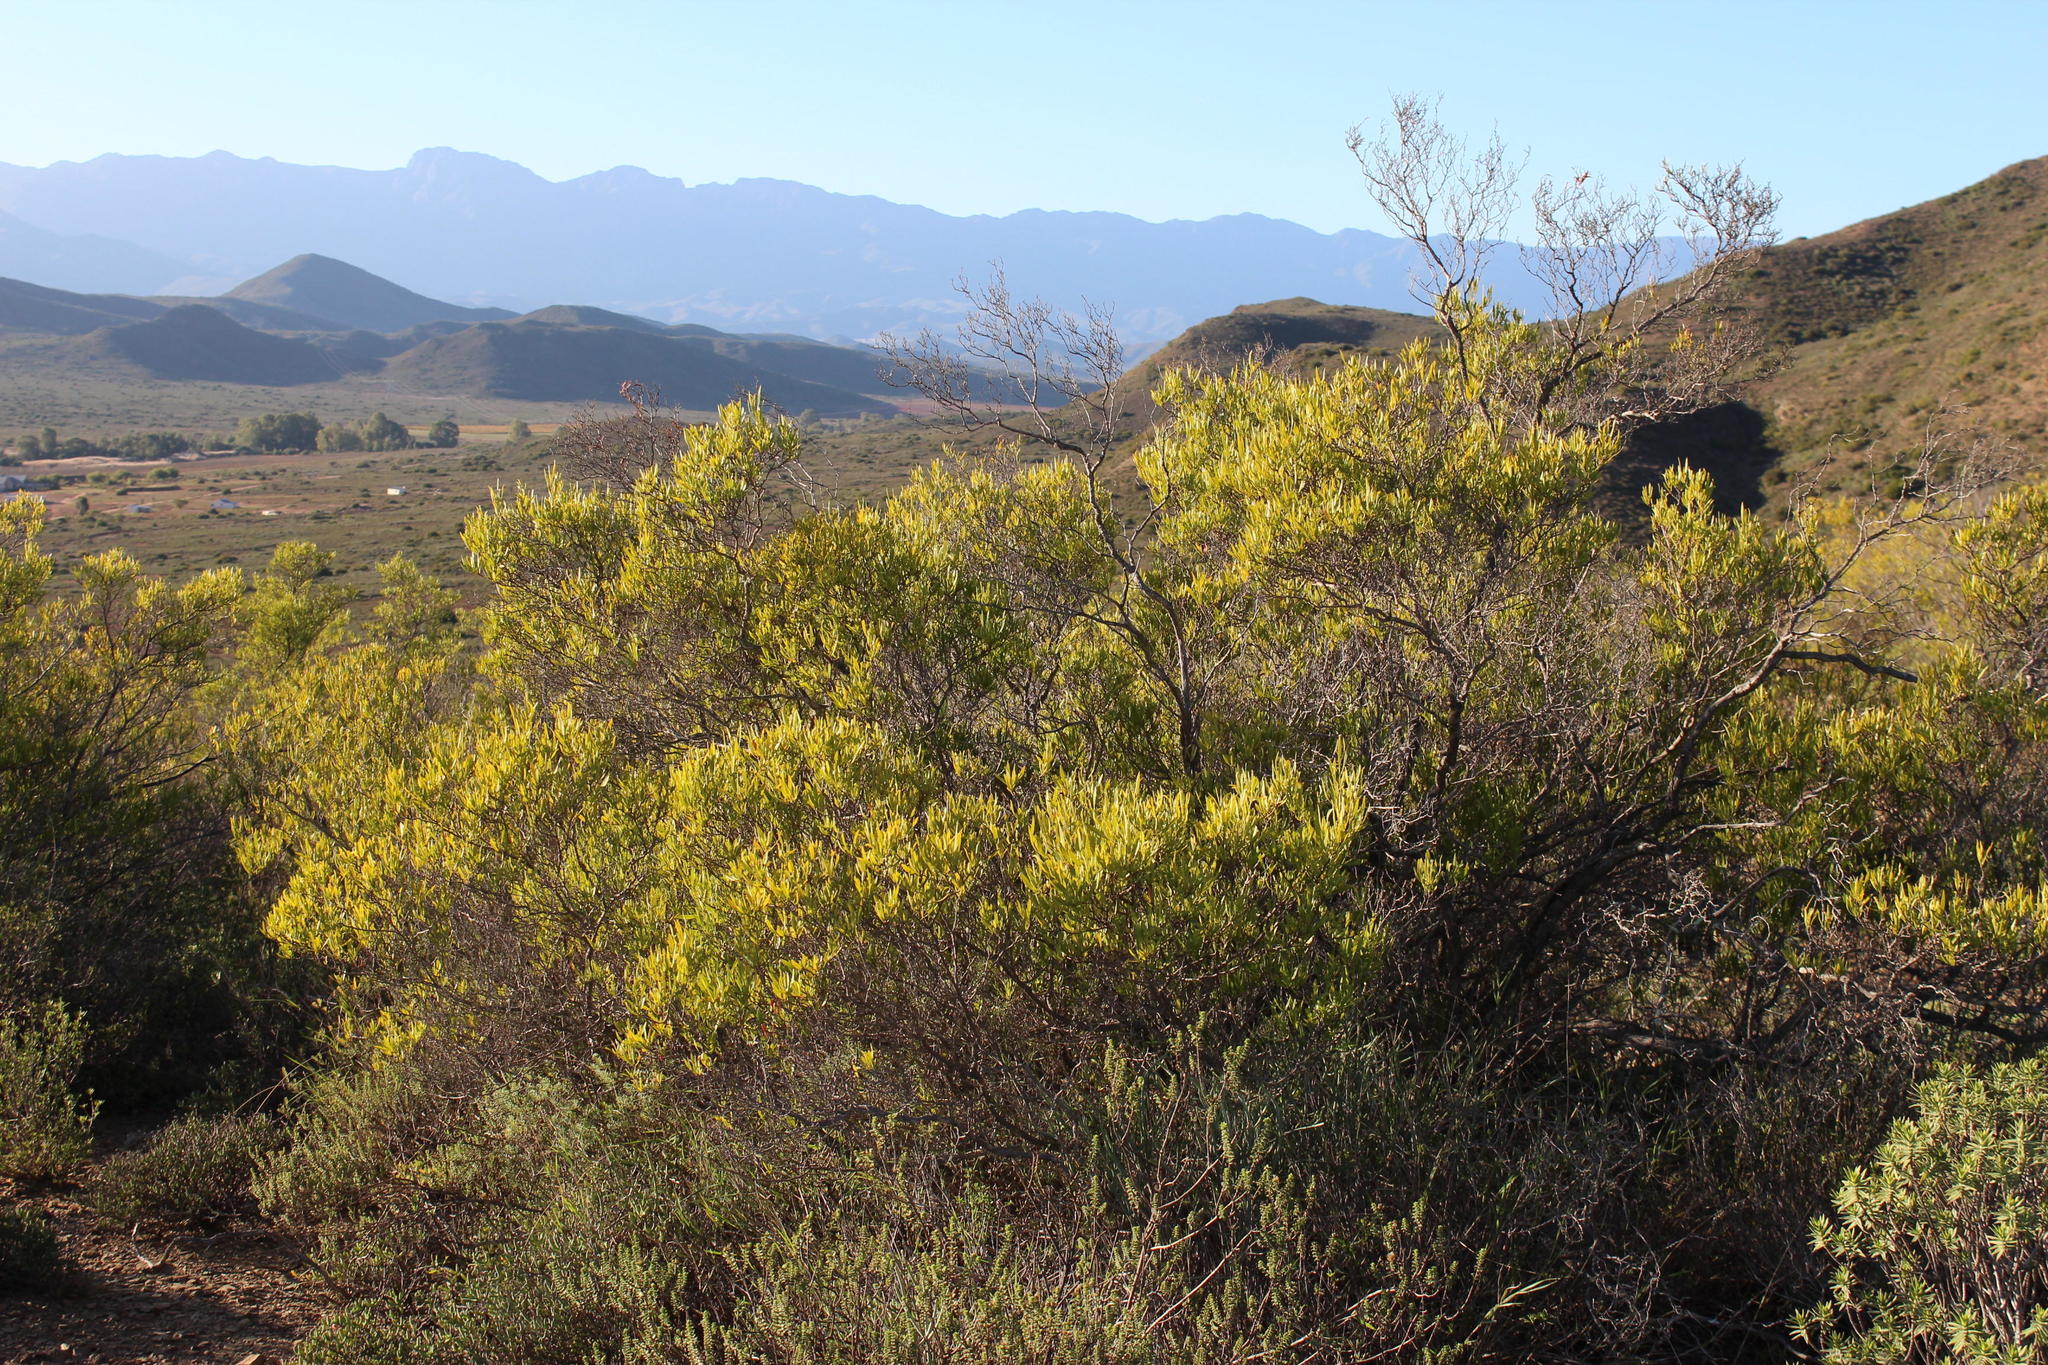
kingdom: Plantae
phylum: Tracheophyta
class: Magnoliopsida
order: Sapindales
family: Sapindaceae
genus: Dodonaea
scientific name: Dodonaea viscosa
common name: Hopbush
